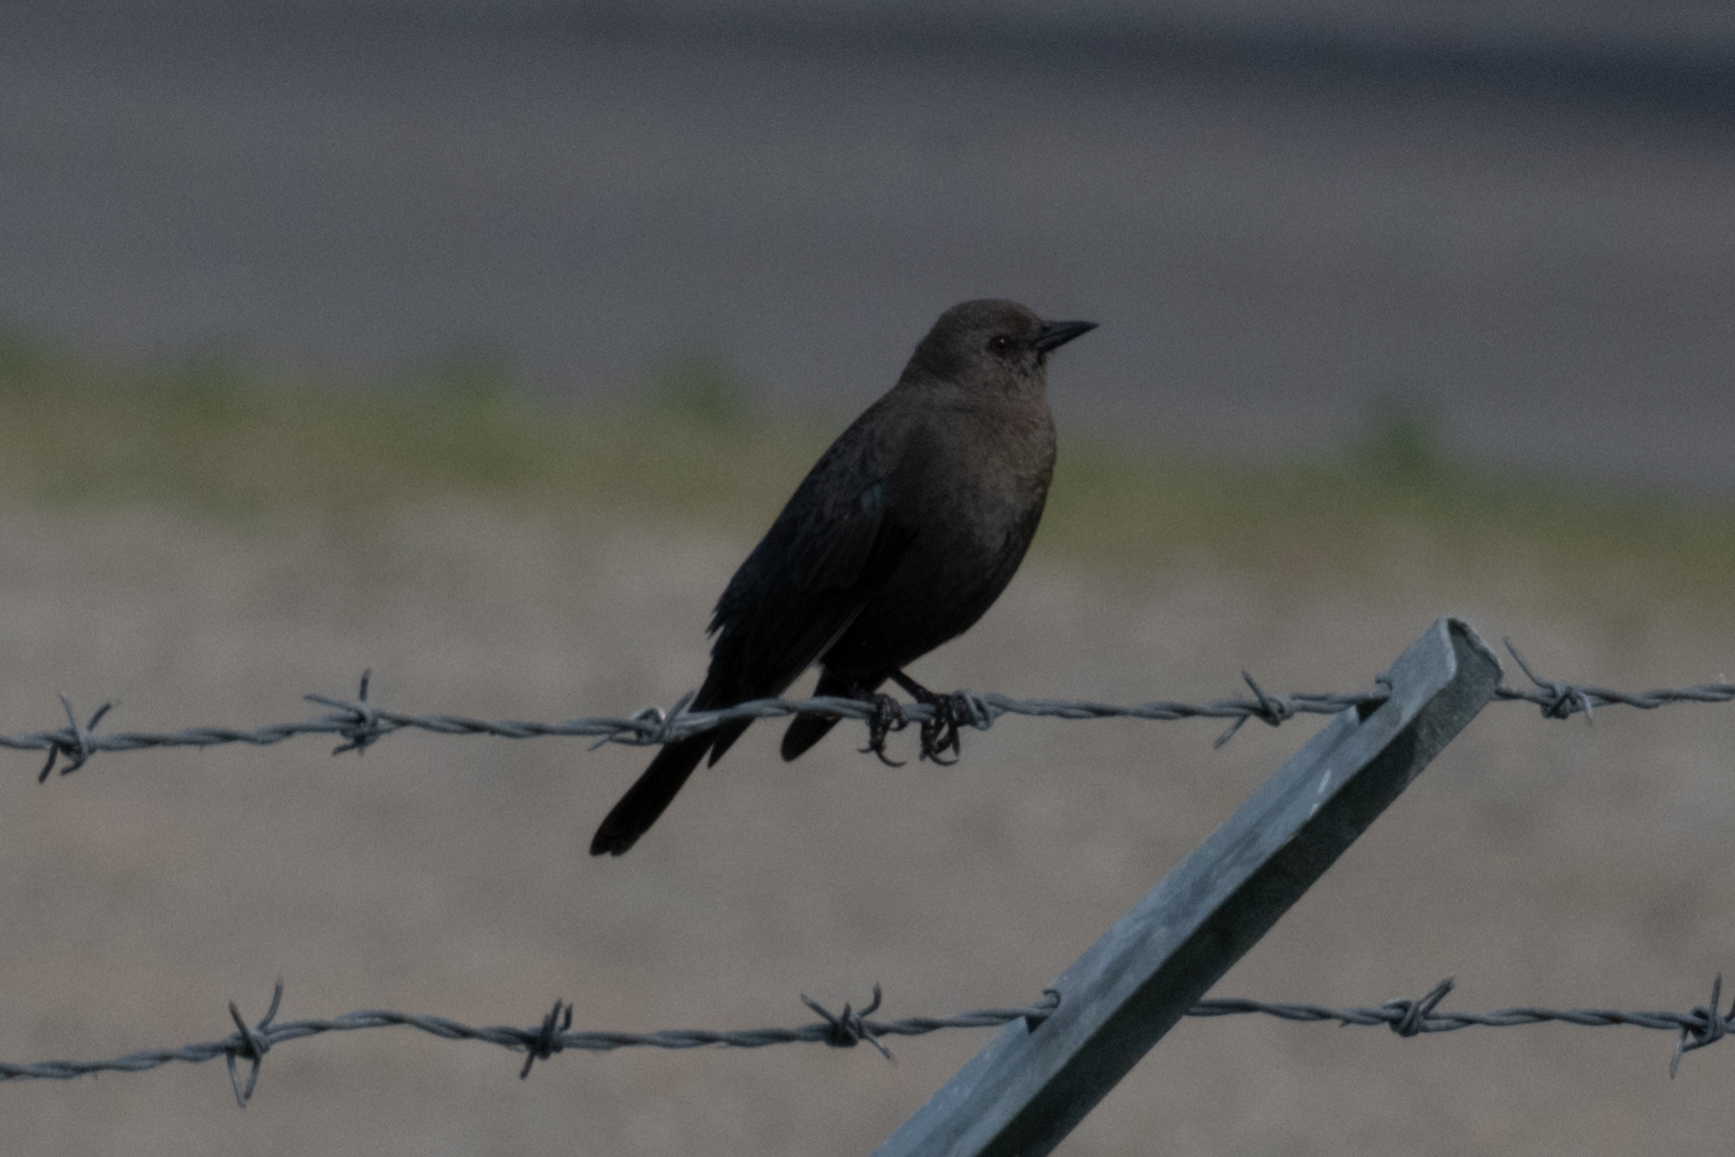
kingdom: Animalia
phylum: Chordata
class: Aves
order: Passeriformes
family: Icteridae
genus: Euphagus
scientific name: Euphagus cyanocephalus
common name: Brewer's blackbird
